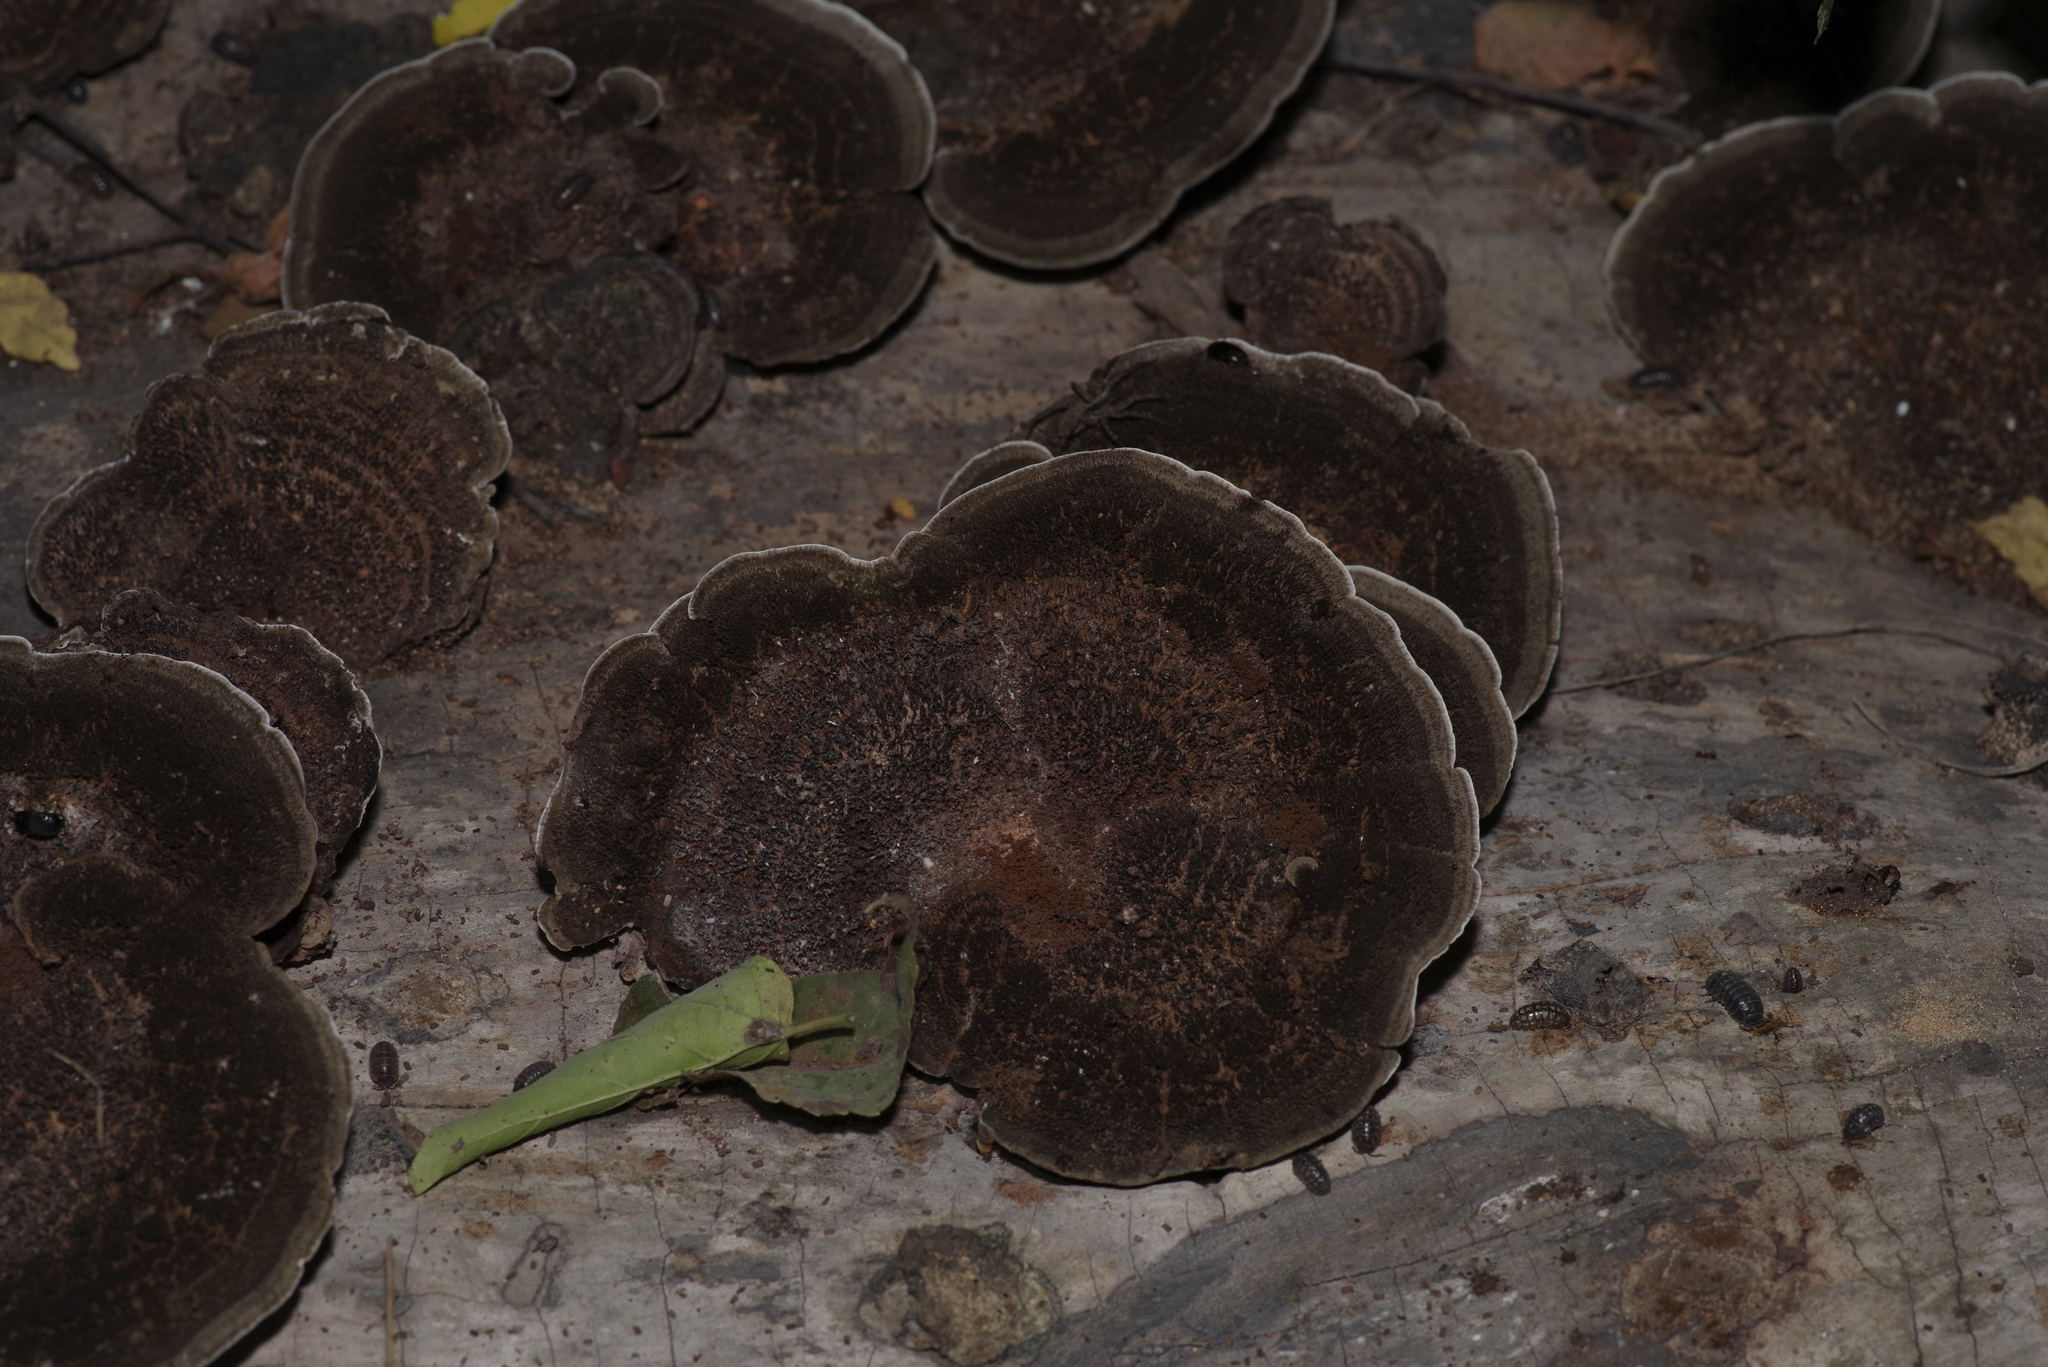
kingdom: Fungi
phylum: Basidiomycota
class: Agaricomycetes
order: Polyporales
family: Cerrenaceae
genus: Cerrena
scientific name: Cerrena hydnoides
